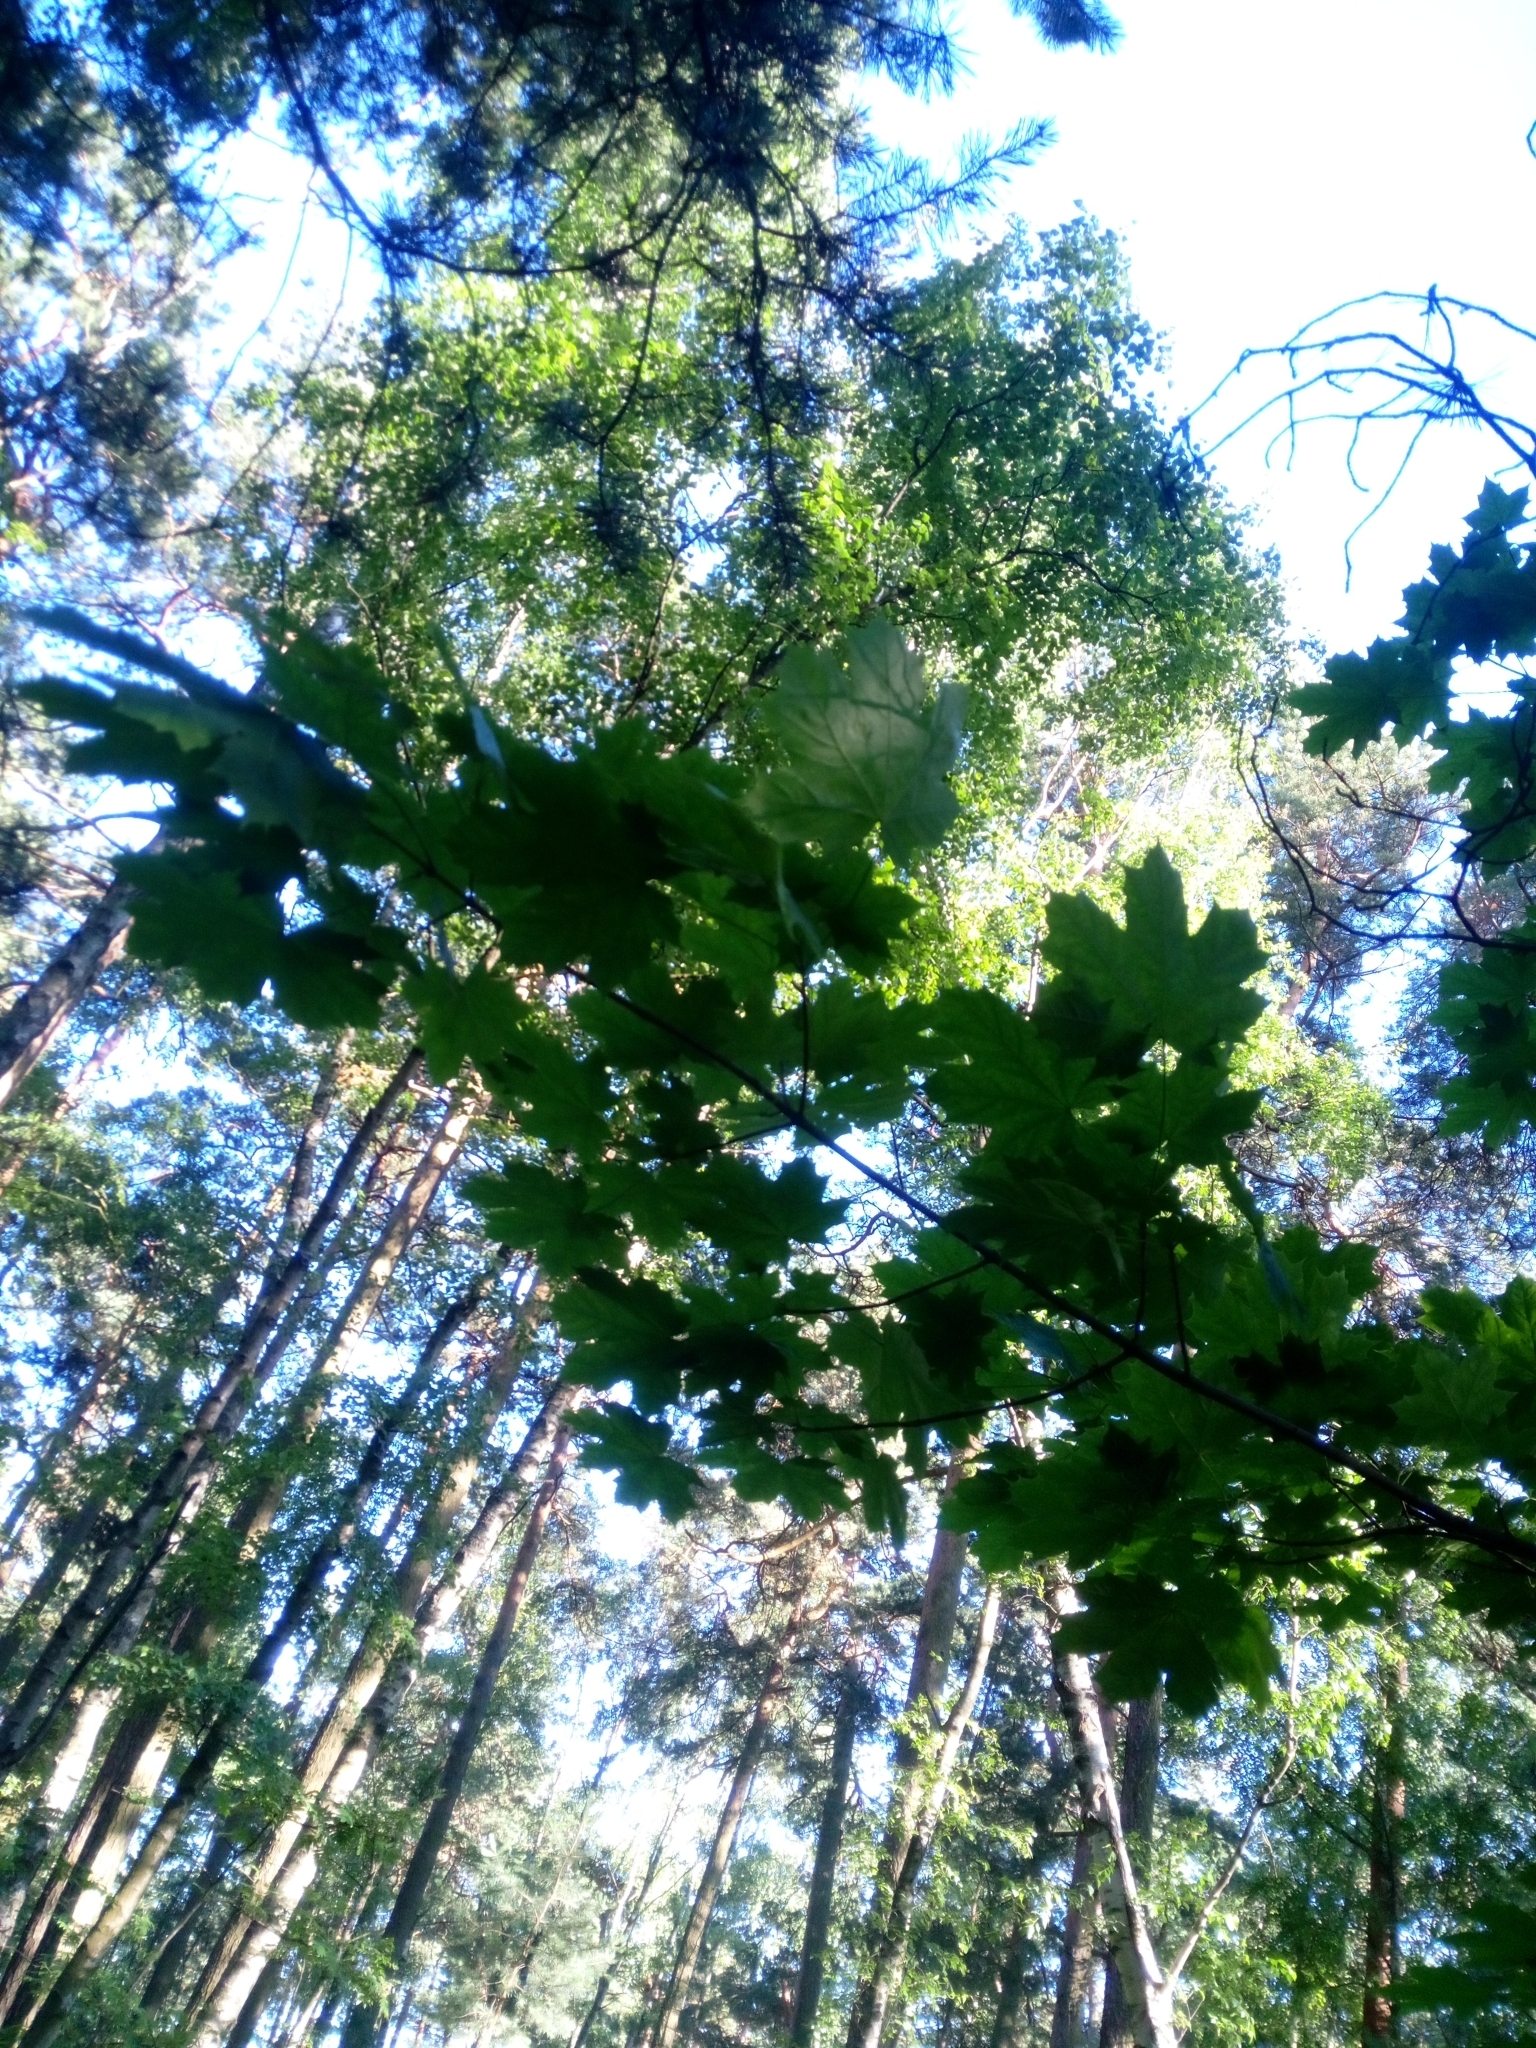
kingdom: Plantae
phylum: Tracheophyta
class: Magnoliopsida
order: Sapindales
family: Sapindaceae
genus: Acer
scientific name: Acer platanoides
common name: Norway maple
